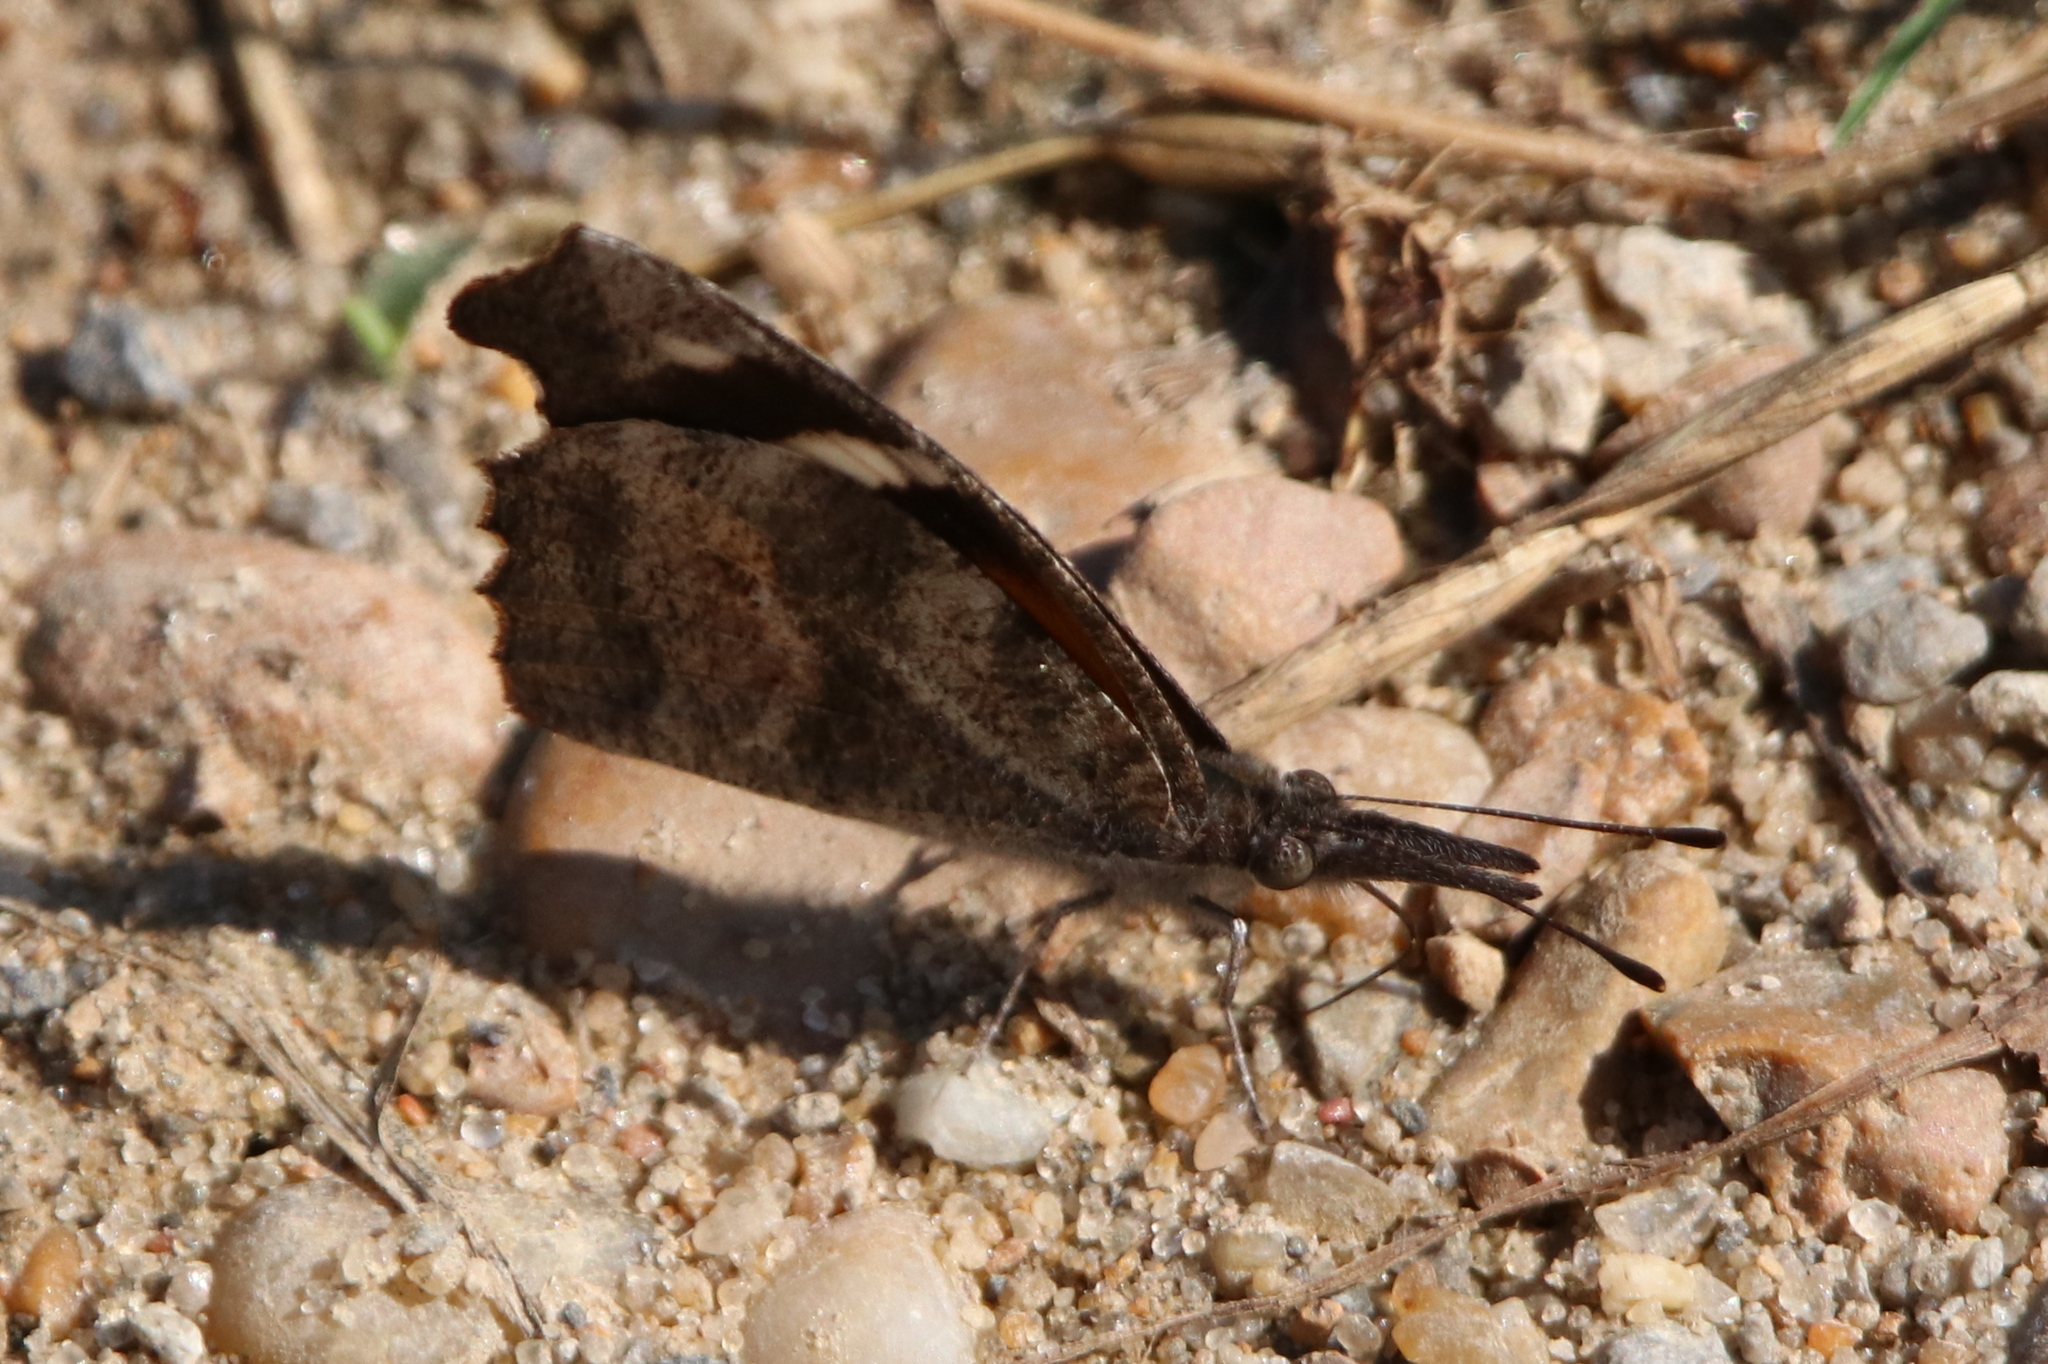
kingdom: Animalia
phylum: Arthropoda
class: Insecta
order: Lepidoptera
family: Nymphalidae
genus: Libytheana
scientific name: Libytheana carinenta
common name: American snout
